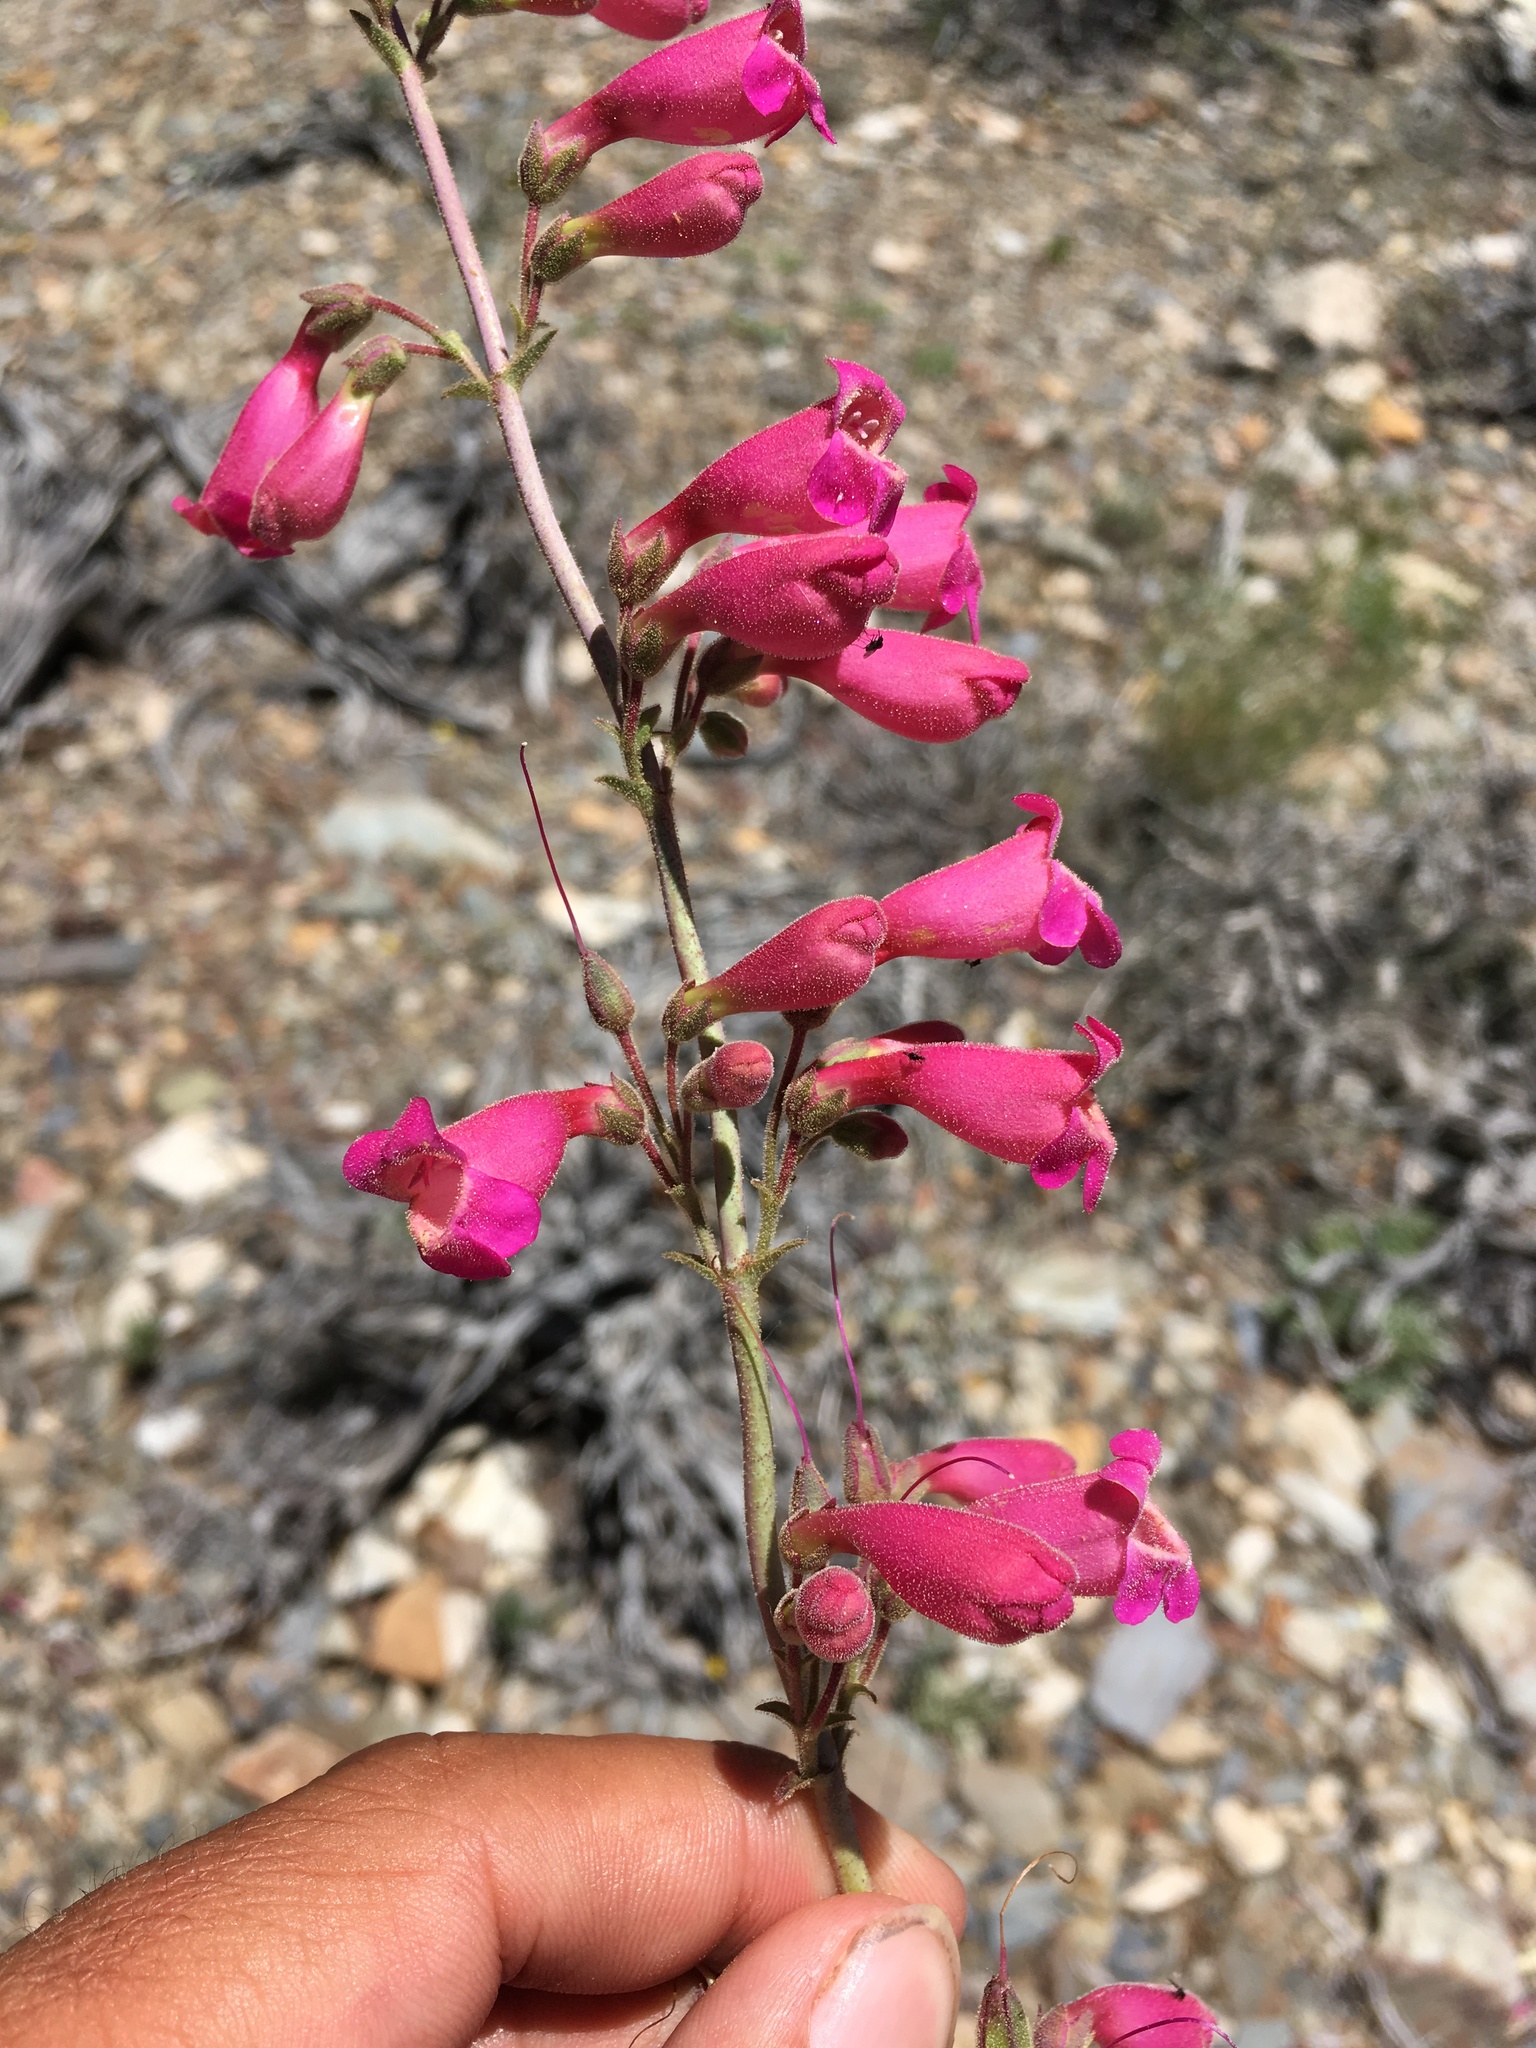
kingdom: Plantae
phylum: Tracheophyta
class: Magnoliopsida
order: Lamiales
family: Plantaginaceae
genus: Penstemon
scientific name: Penstemon floridus
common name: Panamint penstemon
